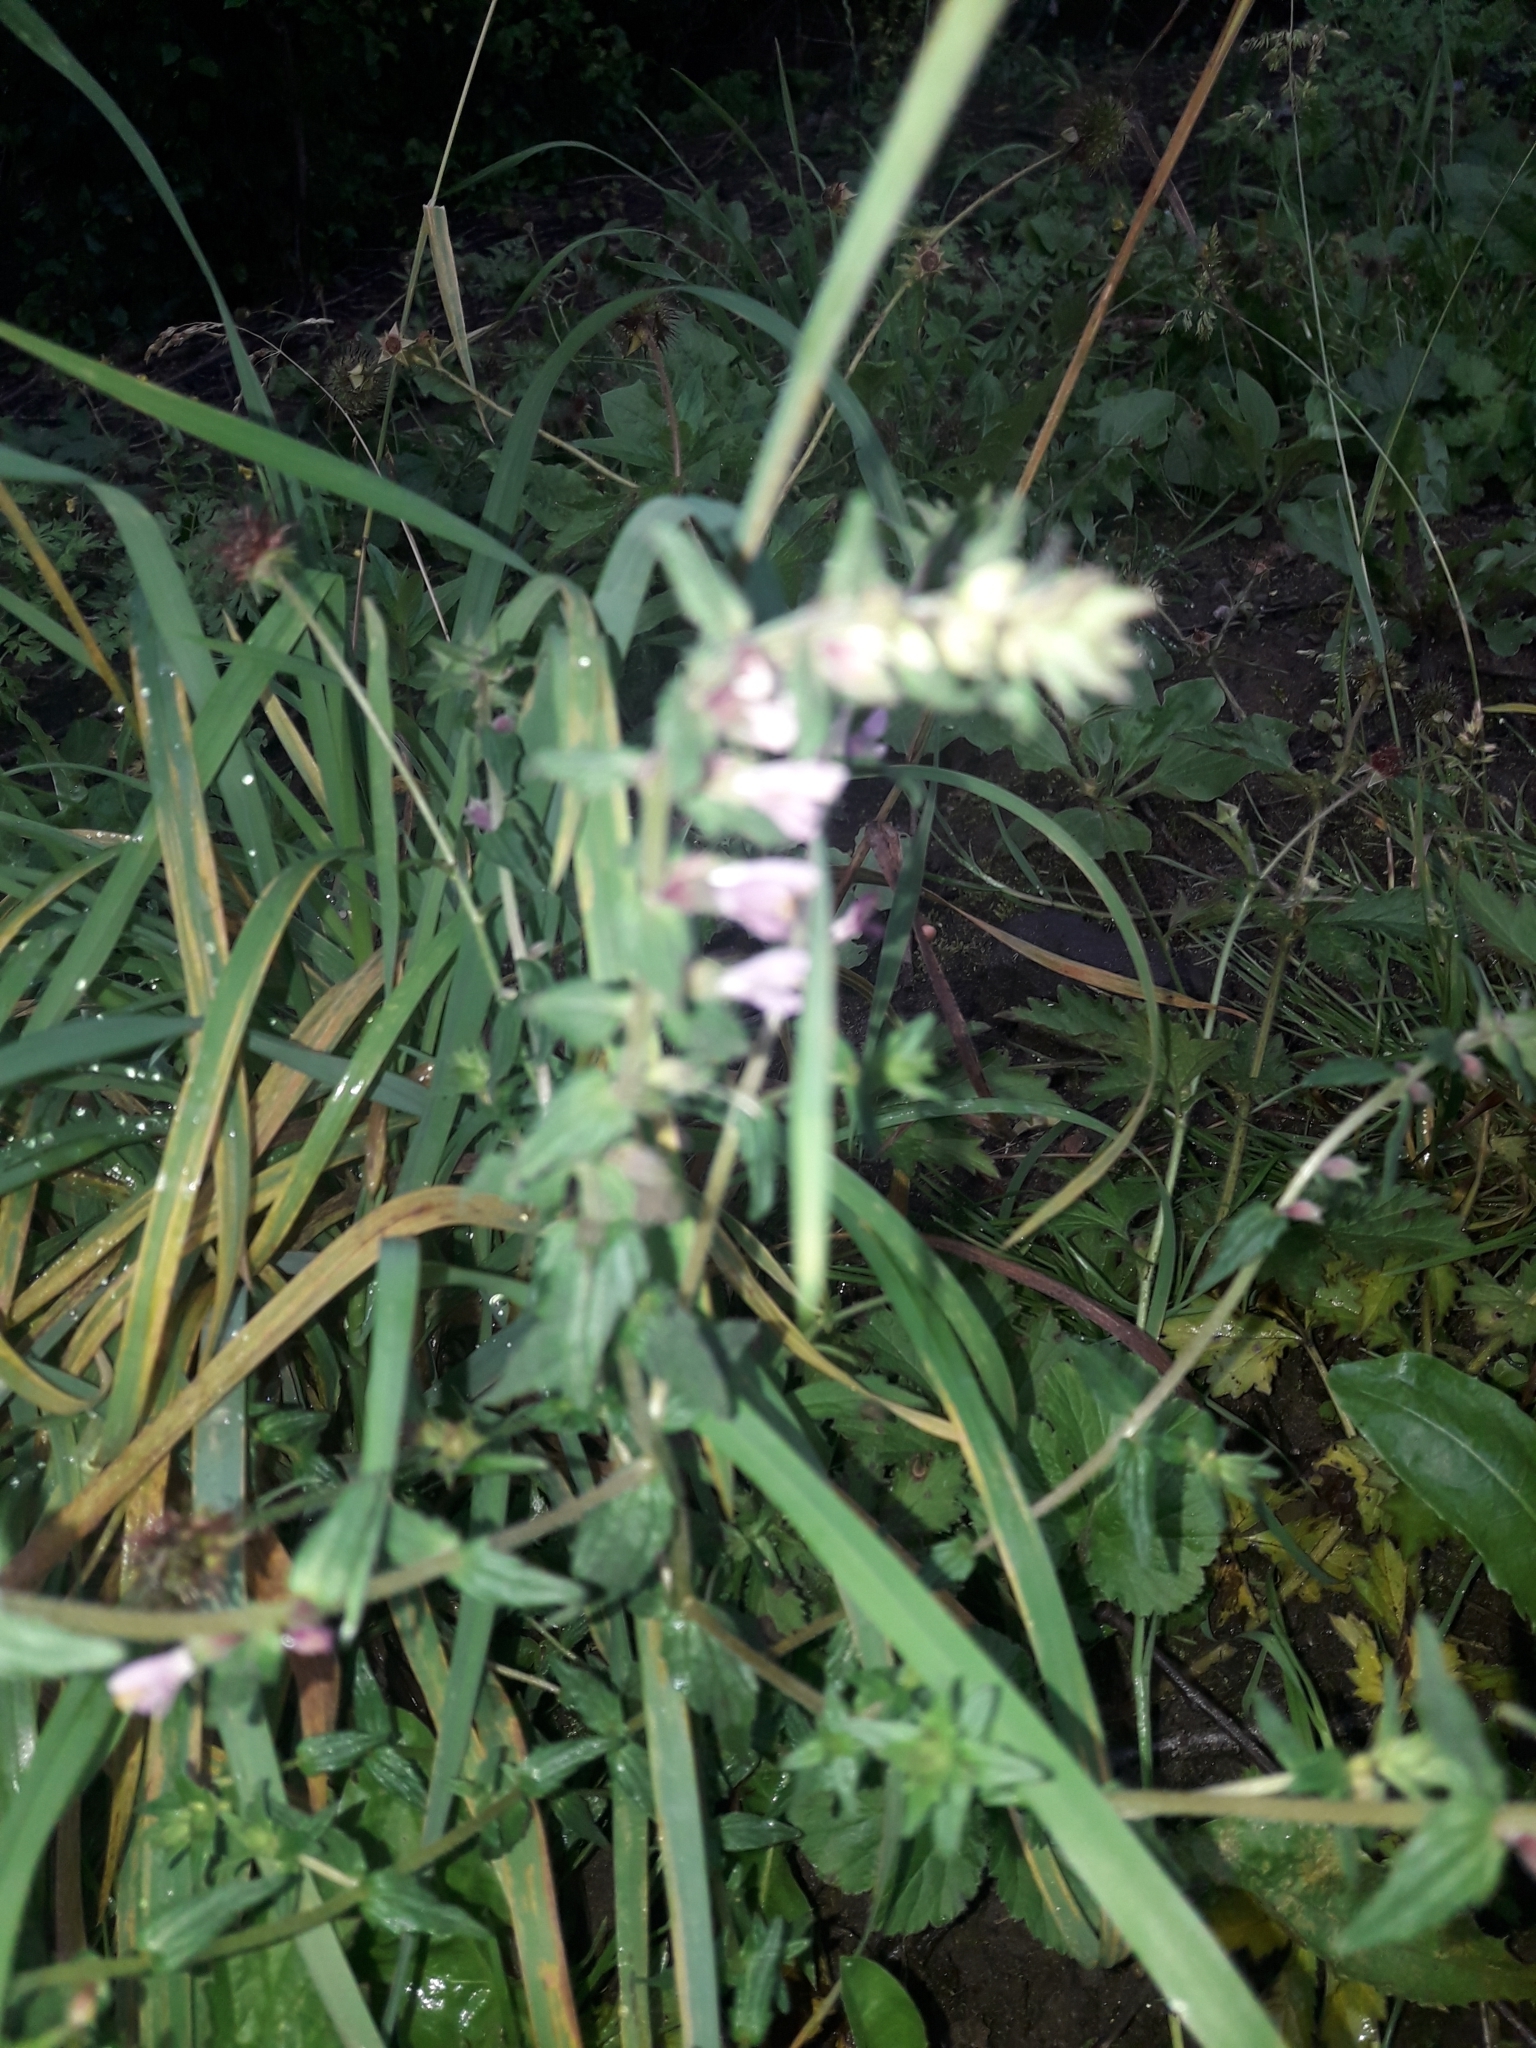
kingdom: Plantae
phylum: Tracheophyta
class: Magnoliopsida
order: Lamiales
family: Orobanchaceae
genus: Odontites
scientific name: Odontites vernus
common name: Red bartsia
